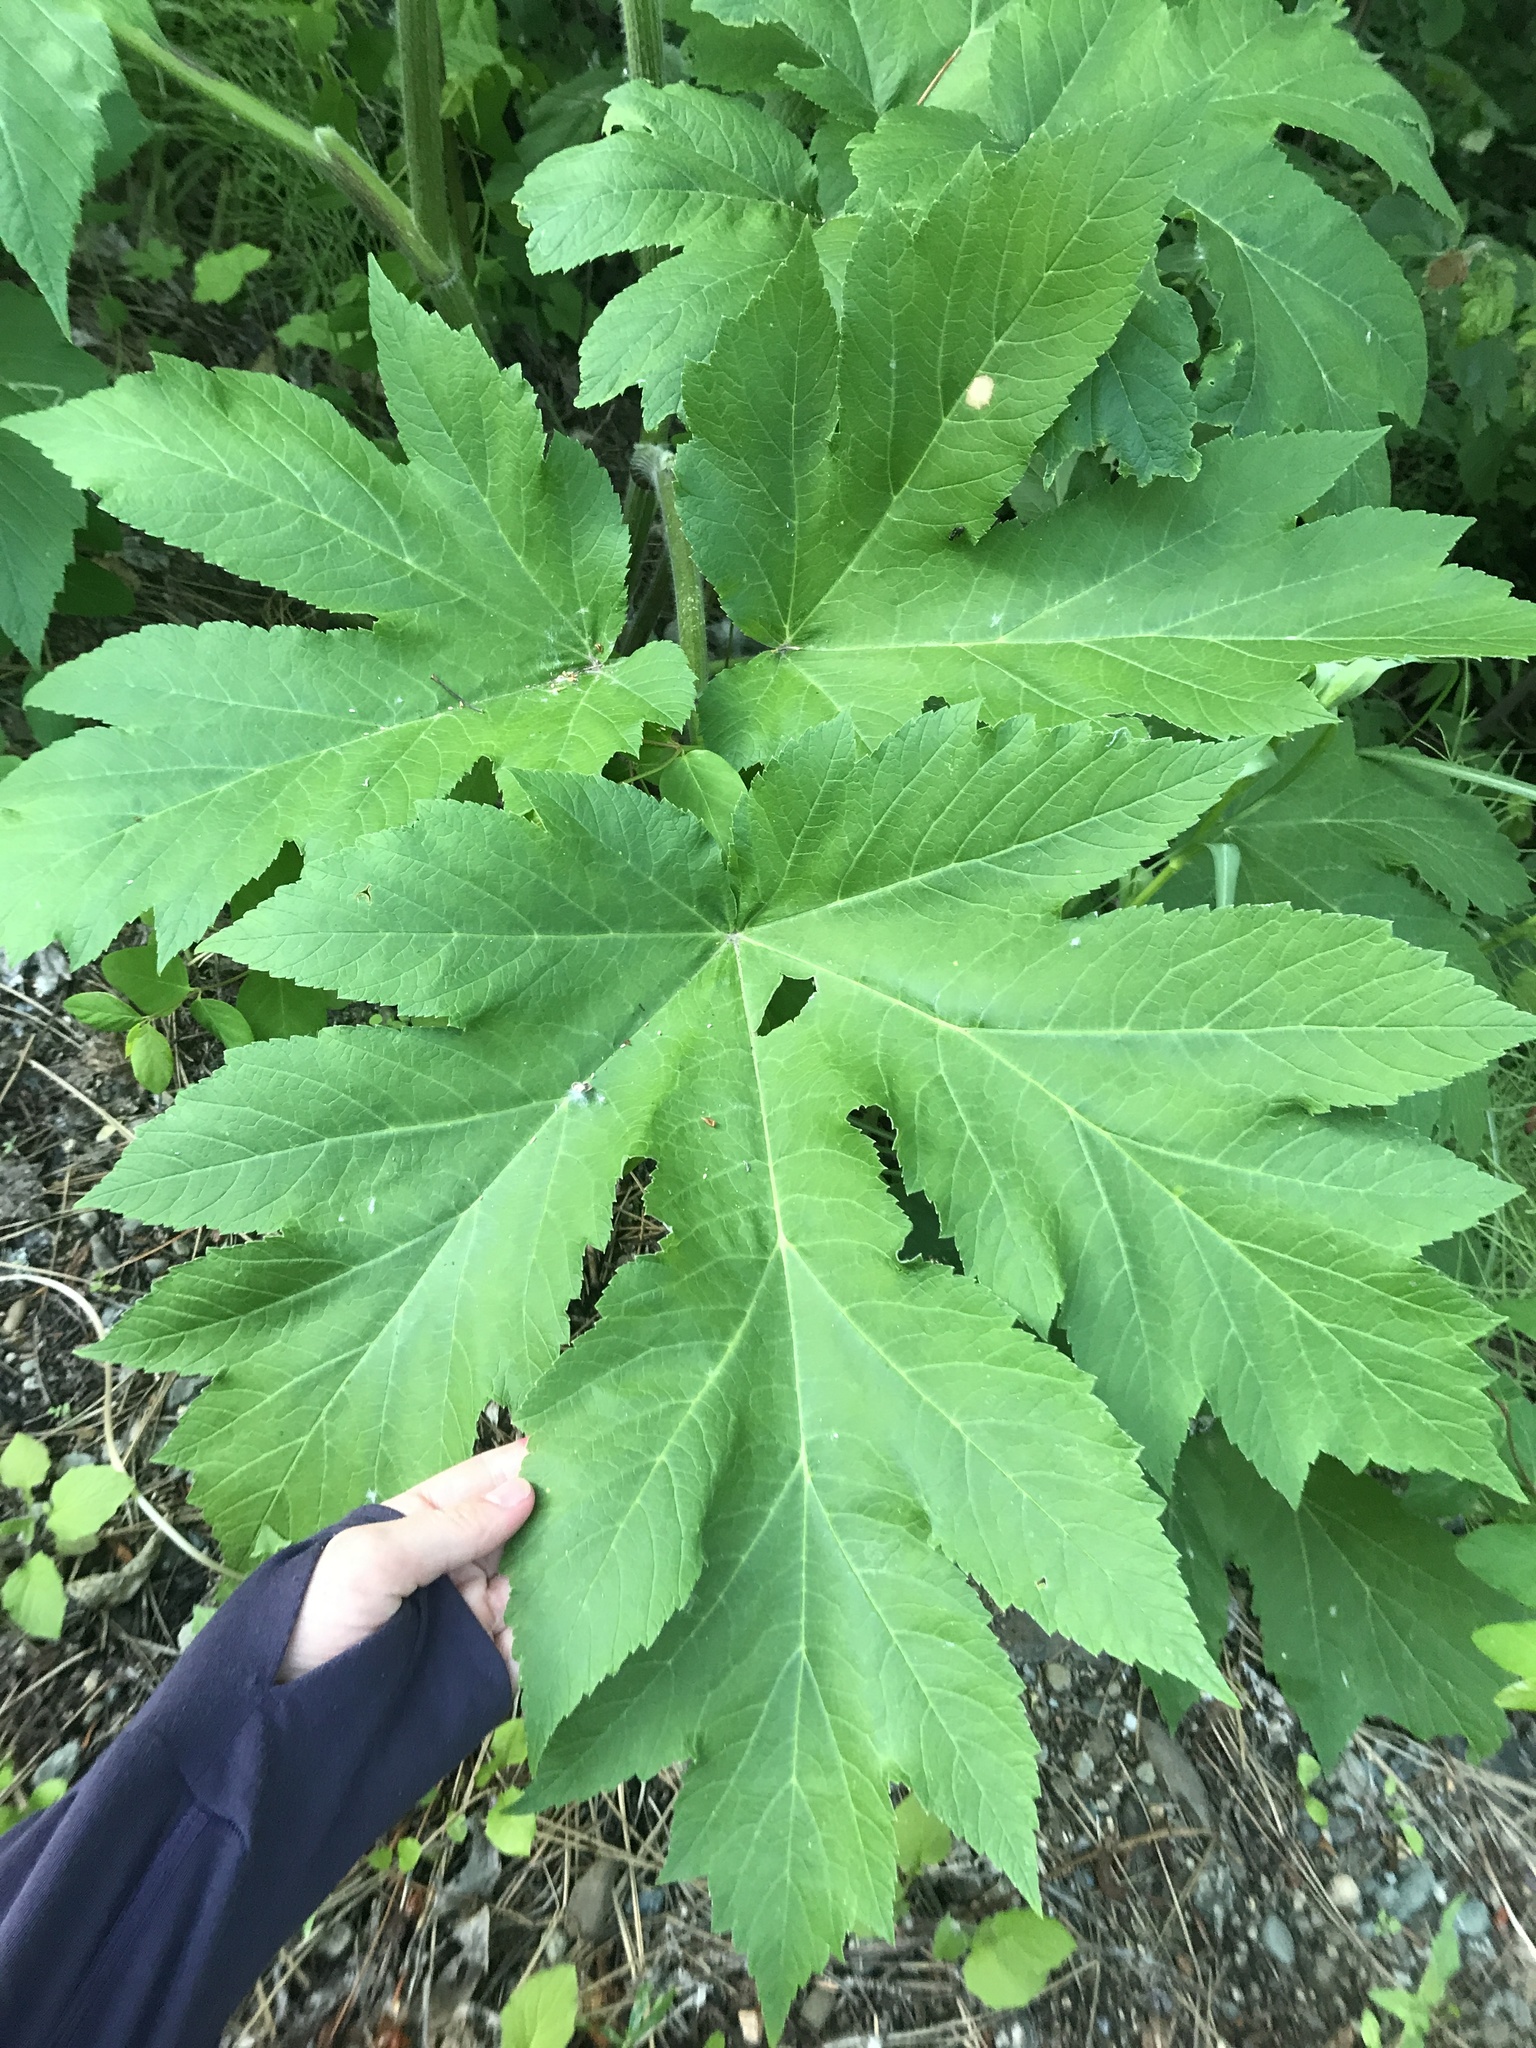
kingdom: Plantae
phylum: Tracheophyta
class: Magnoliopsida
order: Apiales
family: Apiaceae
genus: Heracleum
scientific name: Heracleum maximum
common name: American cow parsnip
